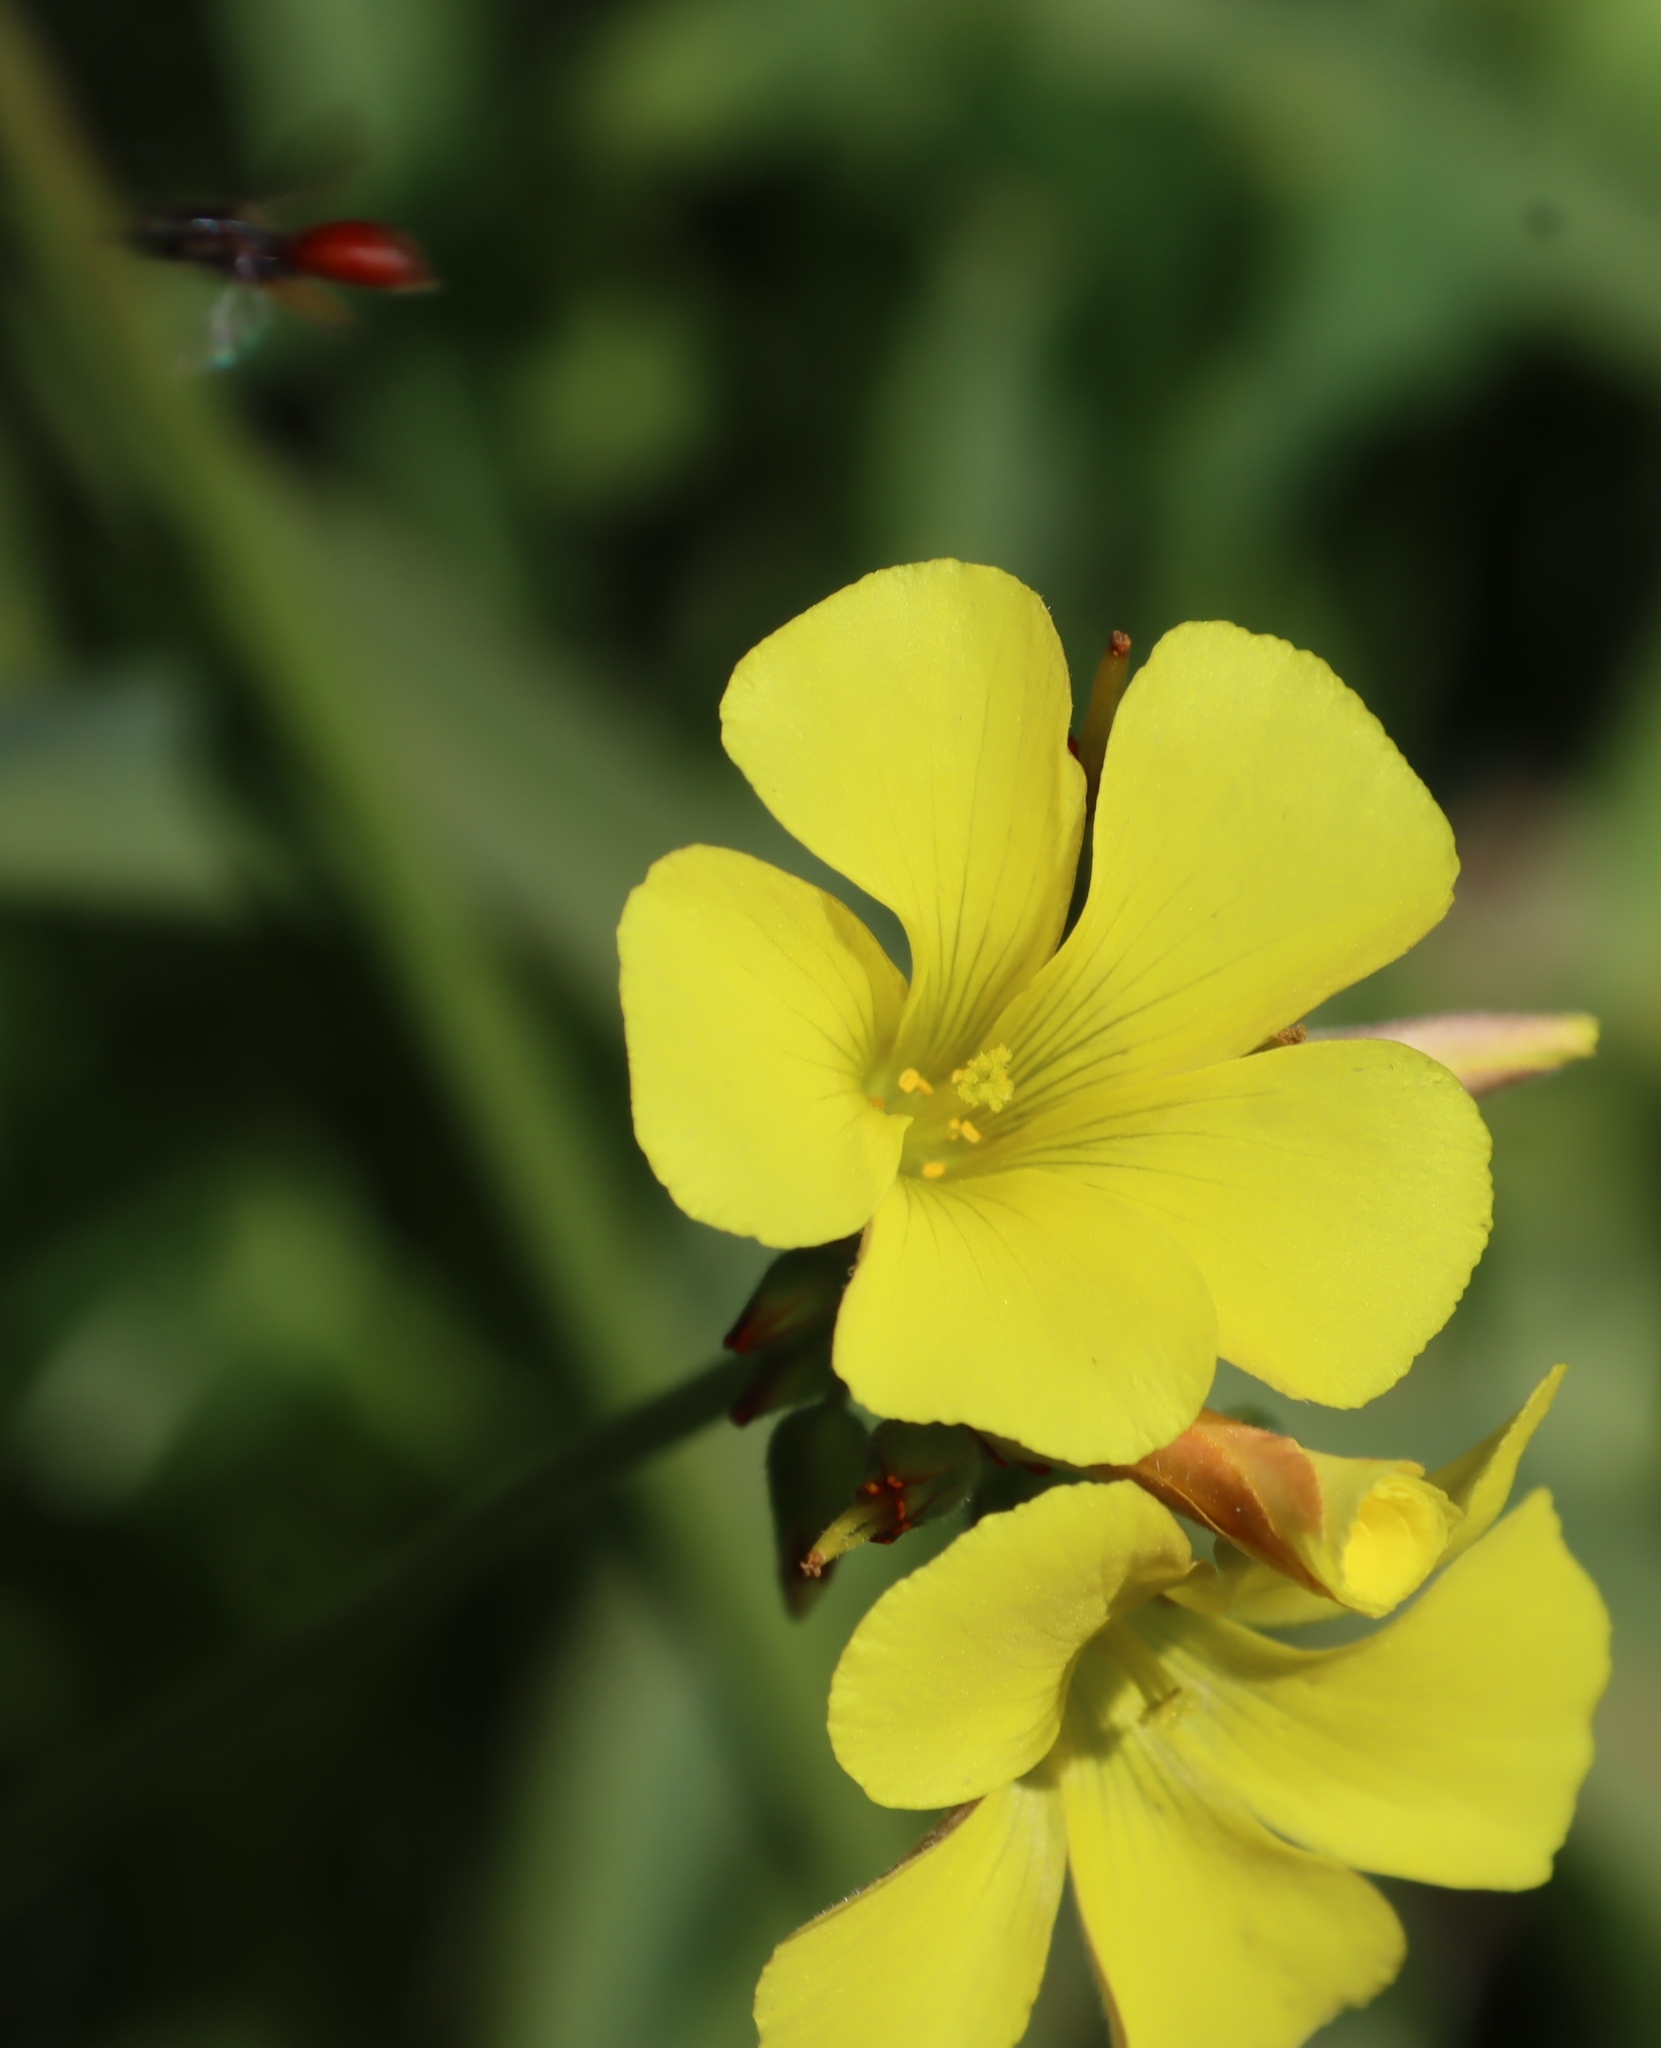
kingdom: Plantae
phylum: Tracheophyta
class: Magnoliopsida
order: Oxalidales
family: Oxalidaceae
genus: Oxalis
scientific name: Oxalis pes-caprae
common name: Bermuda-buttercup
